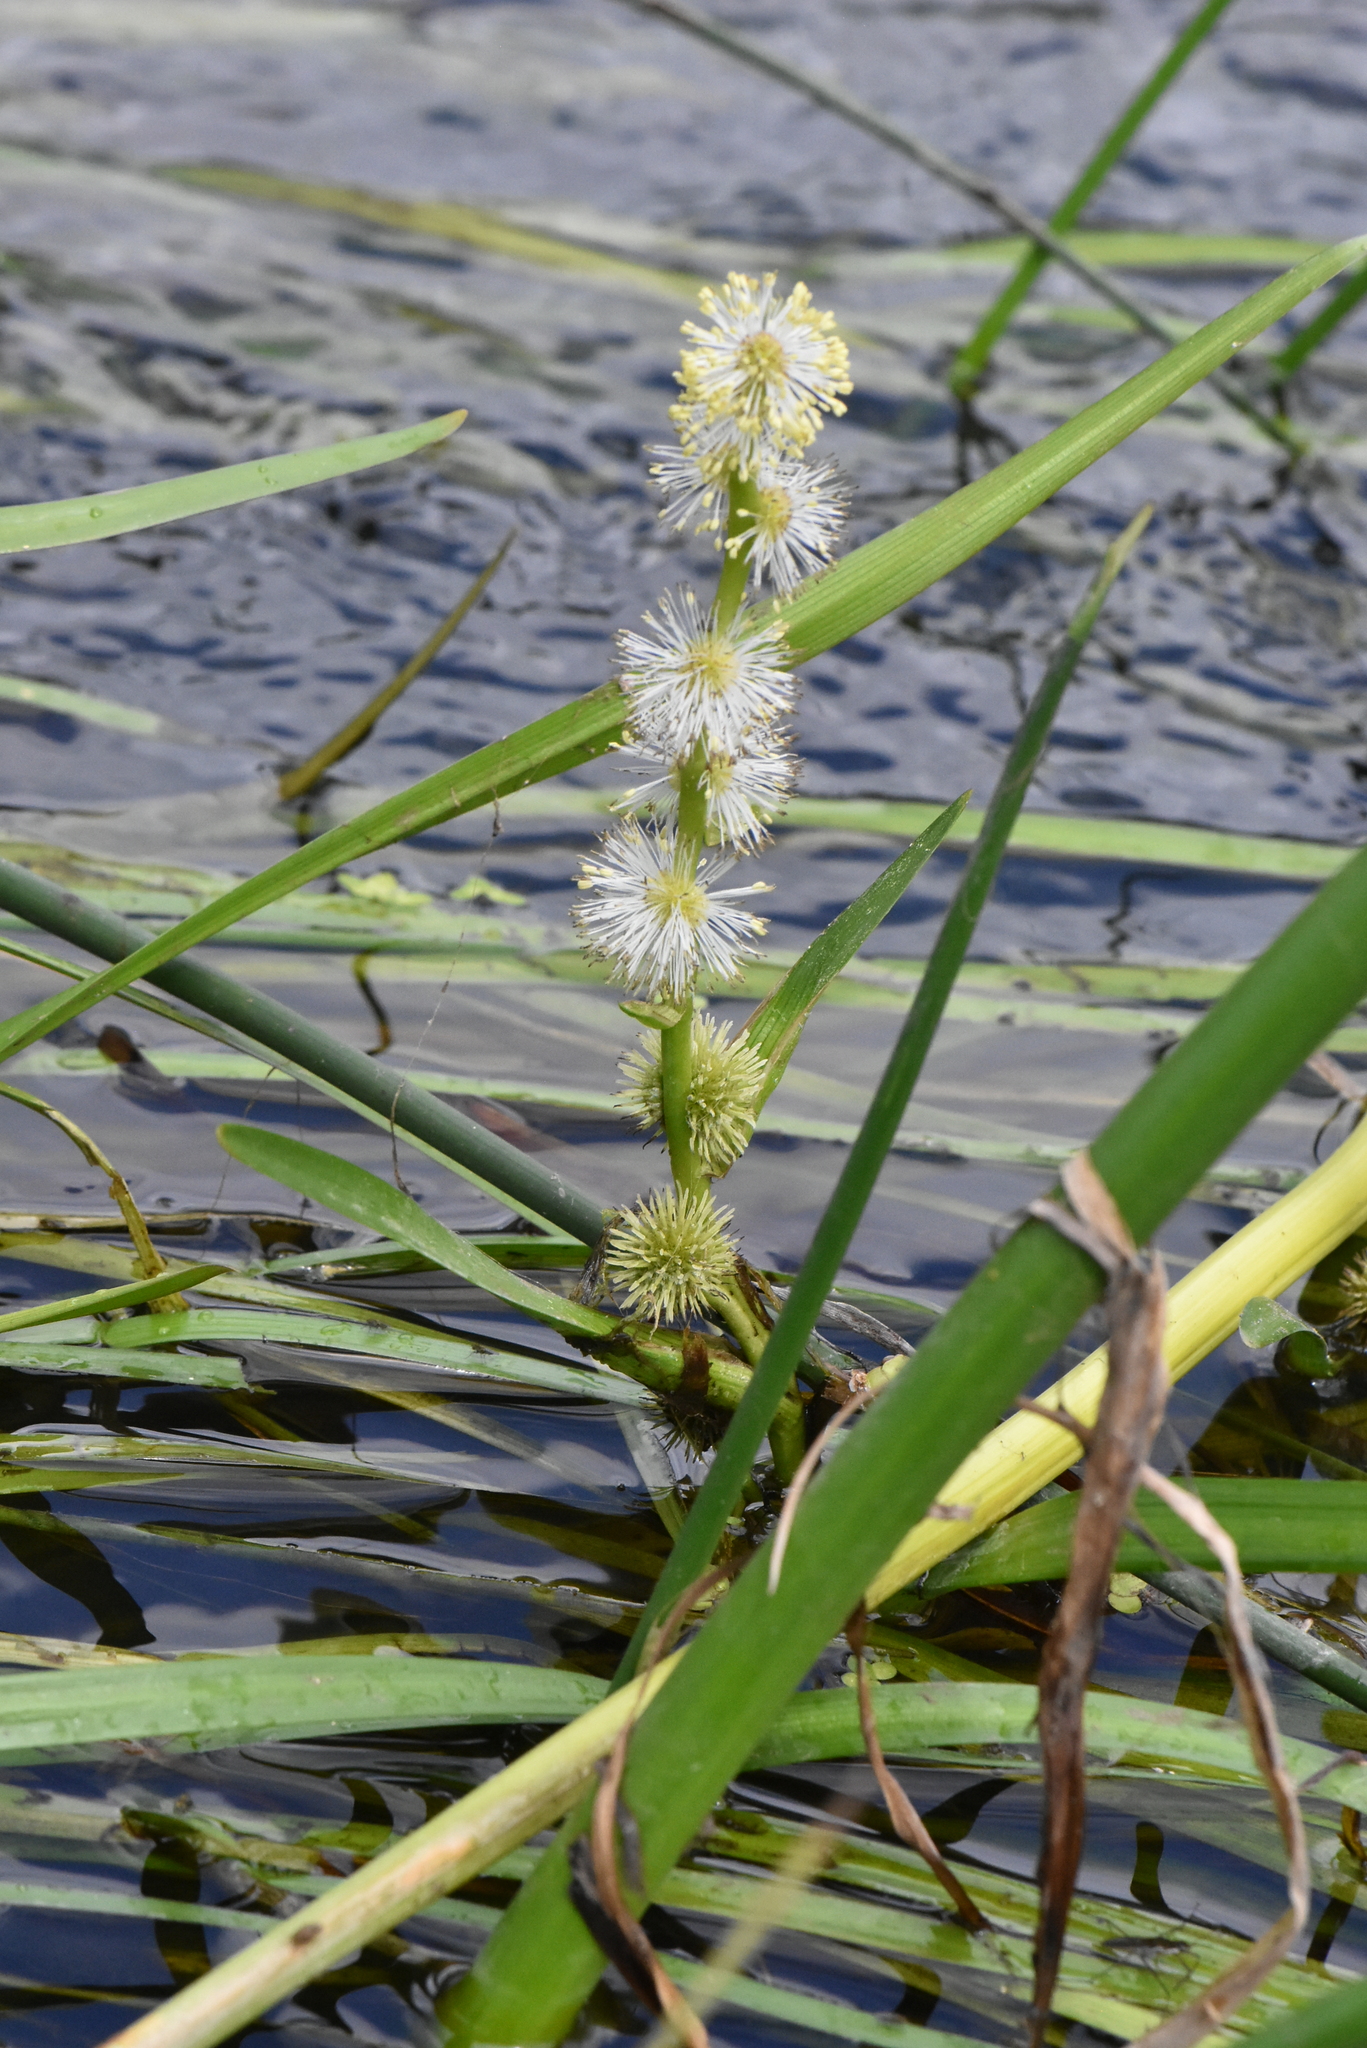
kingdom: Plantae
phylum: Tracheophyta
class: Liliopsida
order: Poales
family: Typhaceae
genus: Sparganium
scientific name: Sparganium emersum
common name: Unbranched bur-reed
